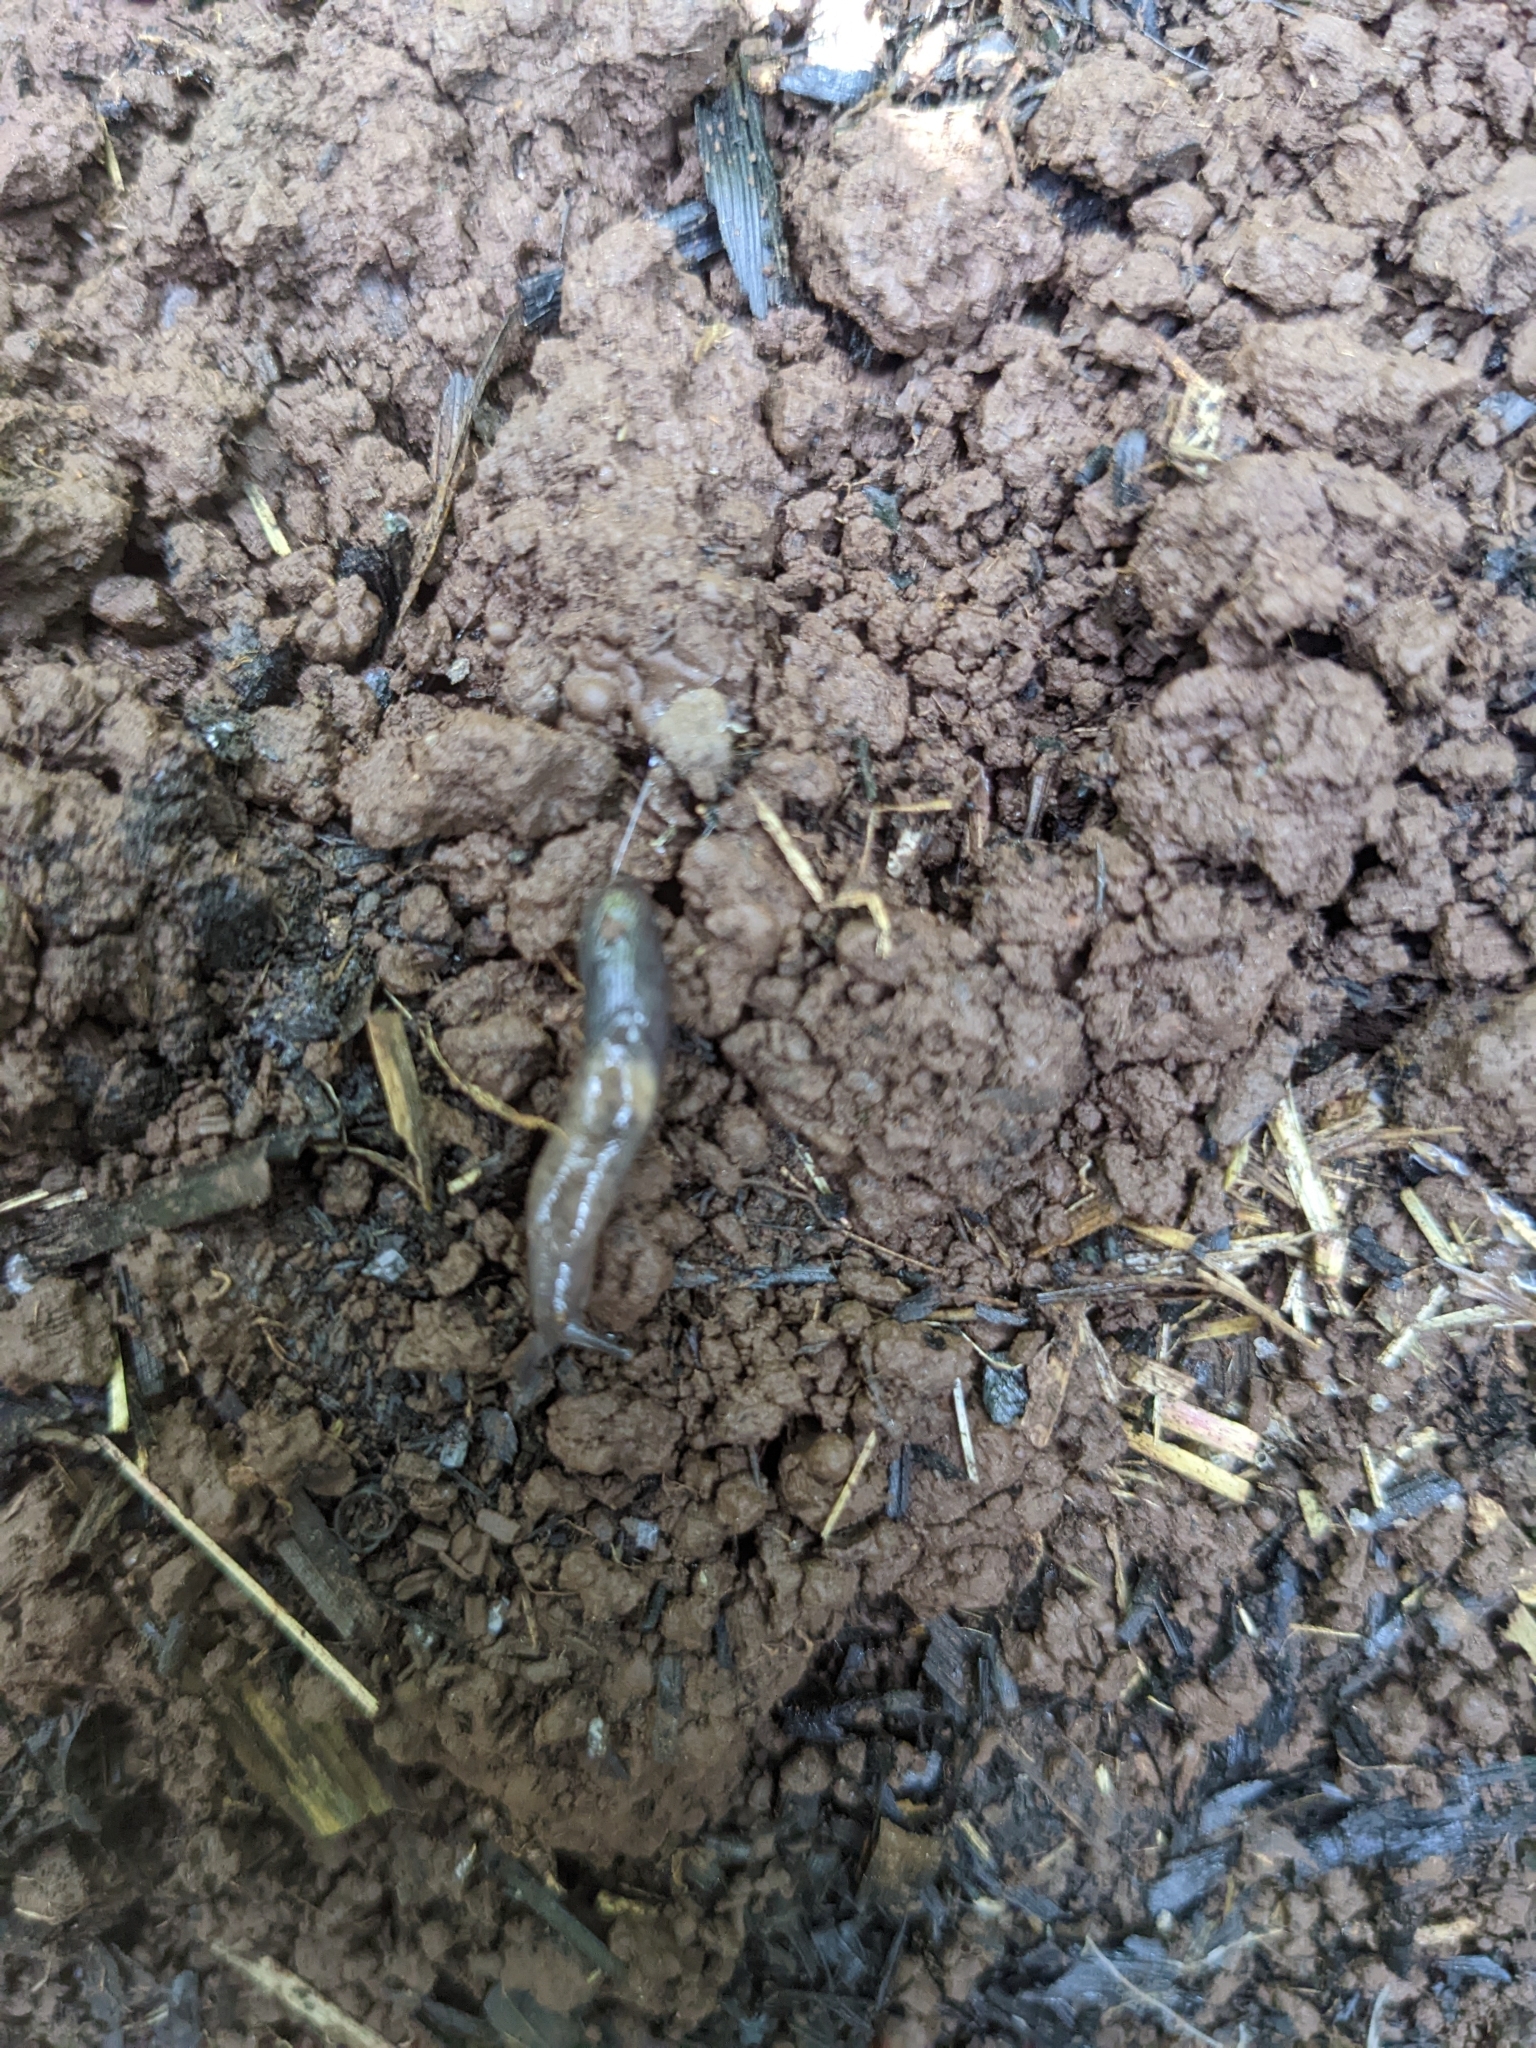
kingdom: Animalia
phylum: Mollusca
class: Gastropoda
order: Stylommatophora
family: Agriolimacidae
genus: Deroceras
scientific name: Deroceras invadens
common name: Caruana's slug
